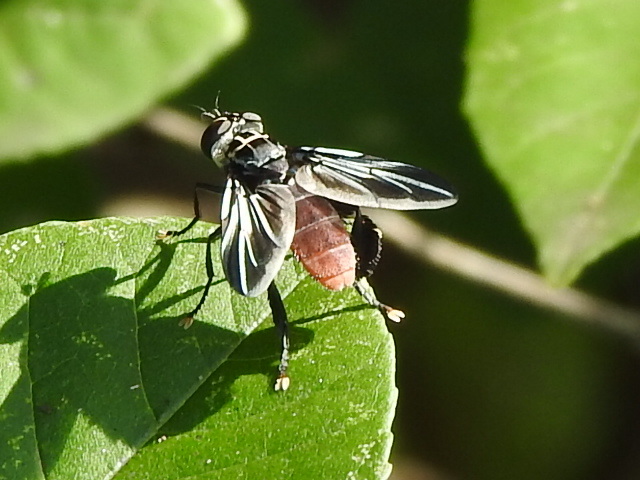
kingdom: Animalia
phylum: Arthropoda
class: Insecta
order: Diptera
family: Tachinidae
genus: Trichopoda
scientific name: Trichopoda lanipes
